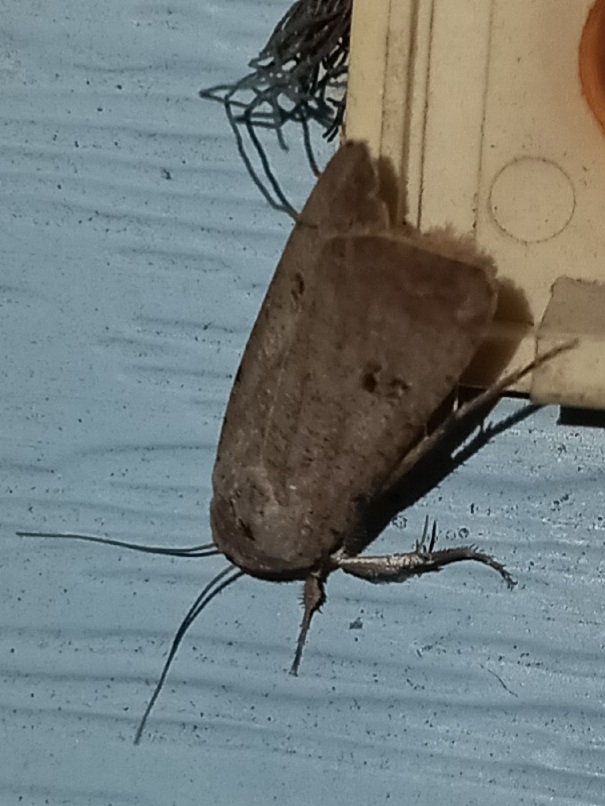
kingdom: Animalia
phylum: Arthropoda
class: Insecta
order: Lepidoptera
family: Noctuidae
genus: Anicla
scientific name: Anicla infecta
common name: Green cutworm
